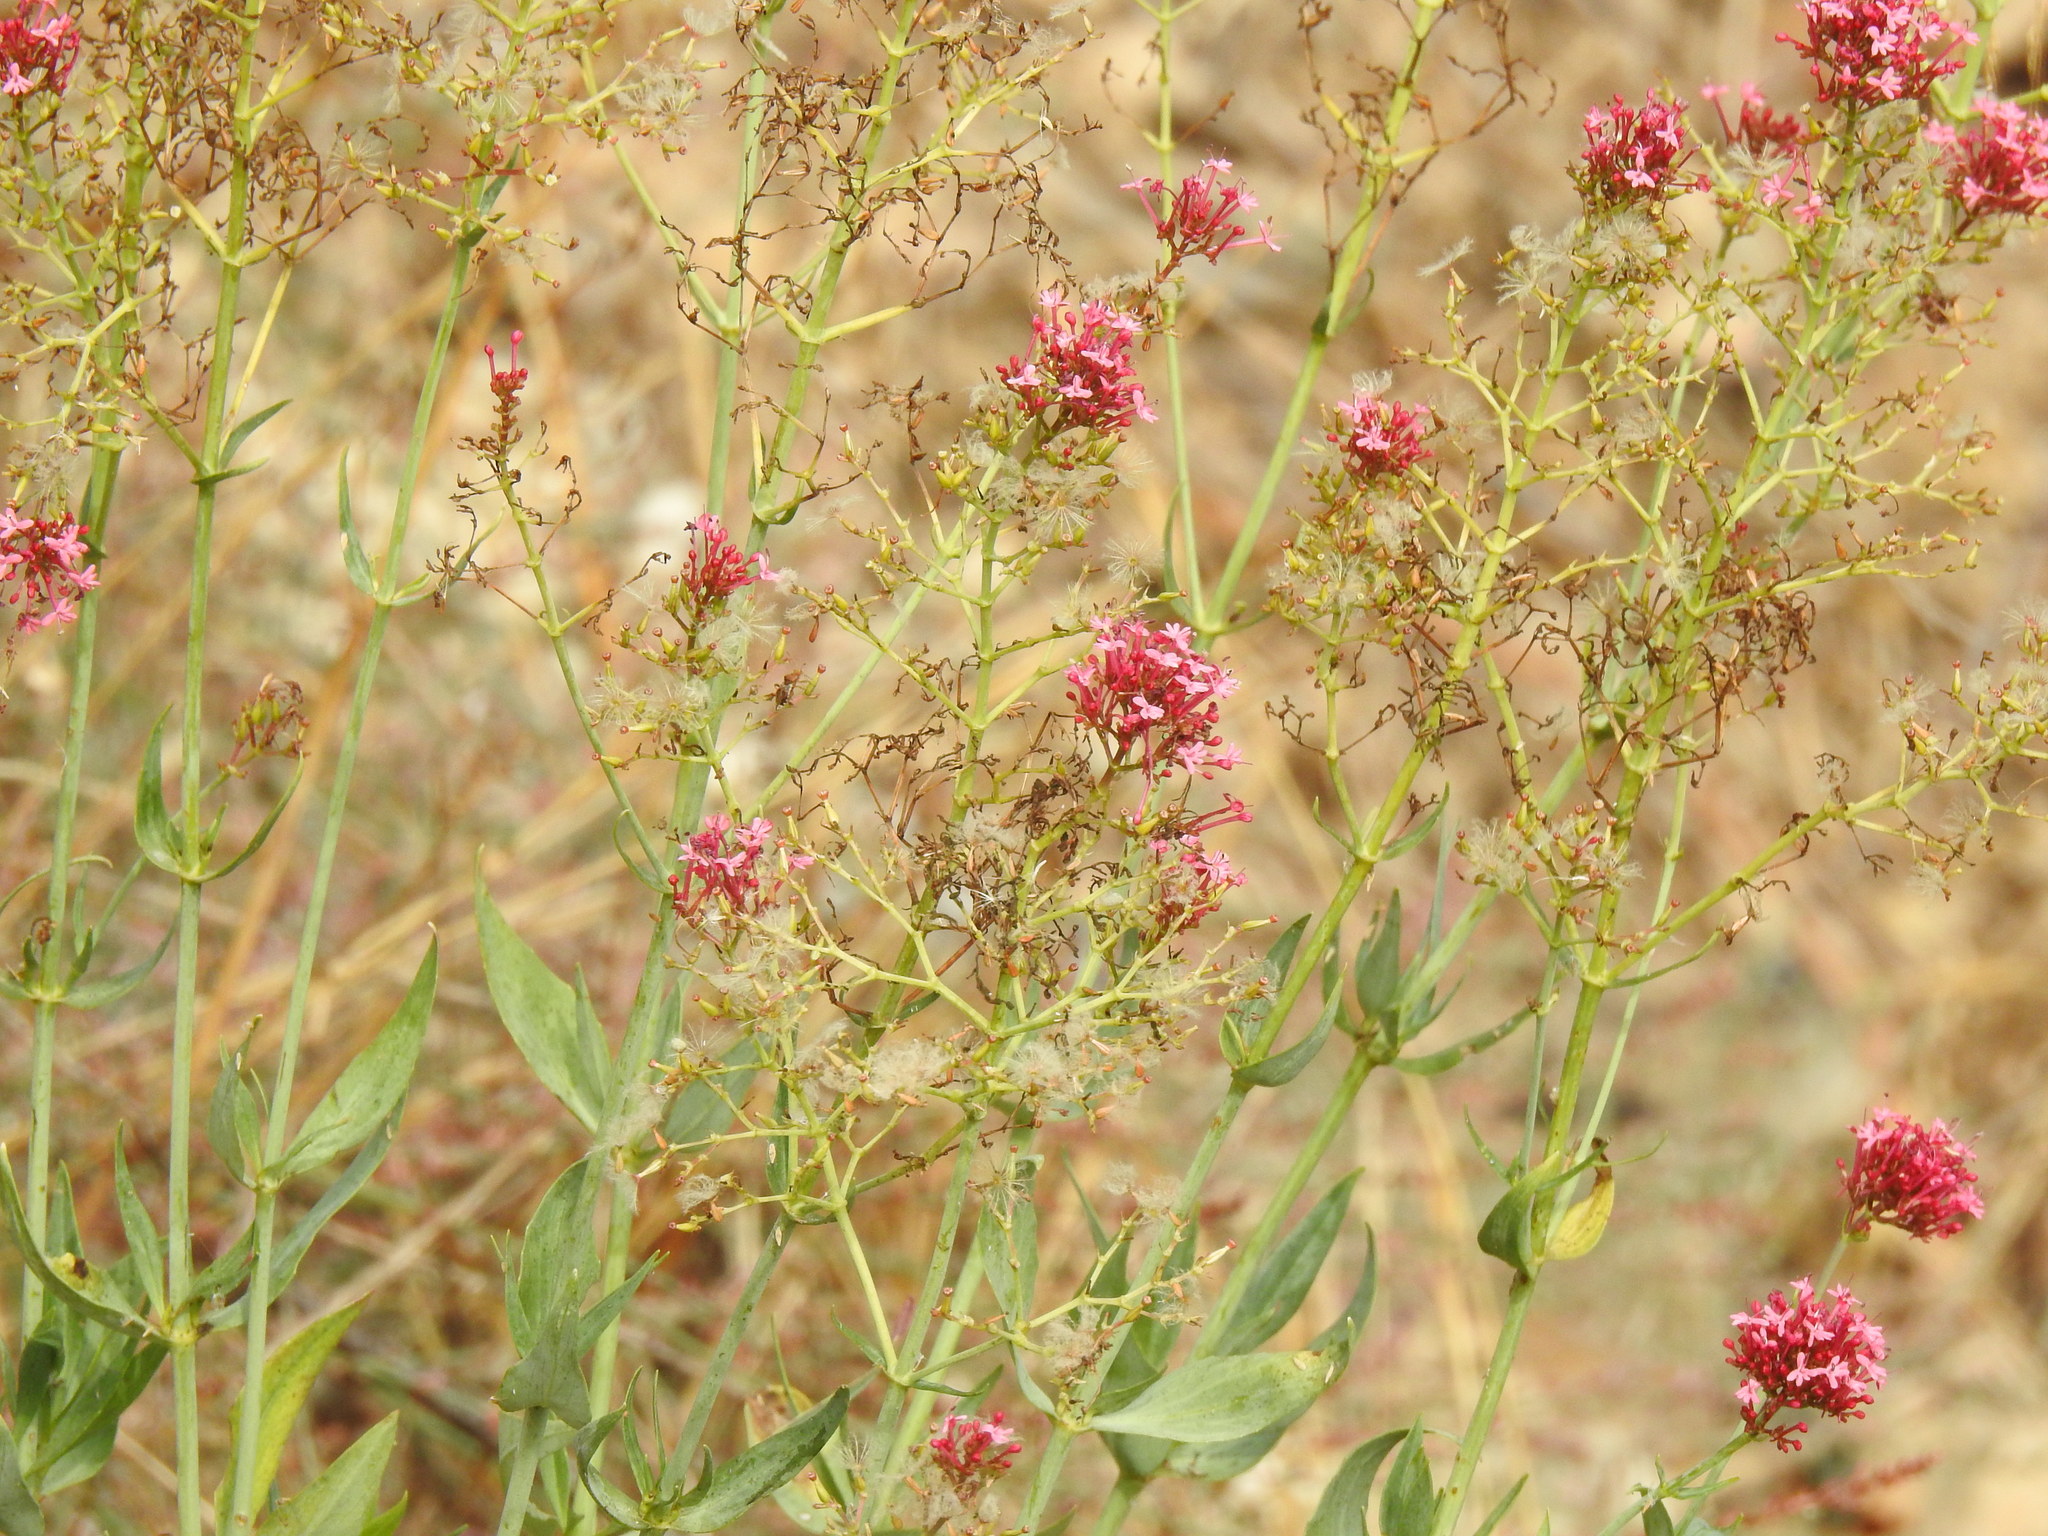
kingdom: Plantae
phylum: Tracheophyta
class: Magnoliopsida
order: Dipsacales
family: Caprifoliaceae
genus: Centranthus
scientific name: Centranthus ruber
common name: Red valerian
